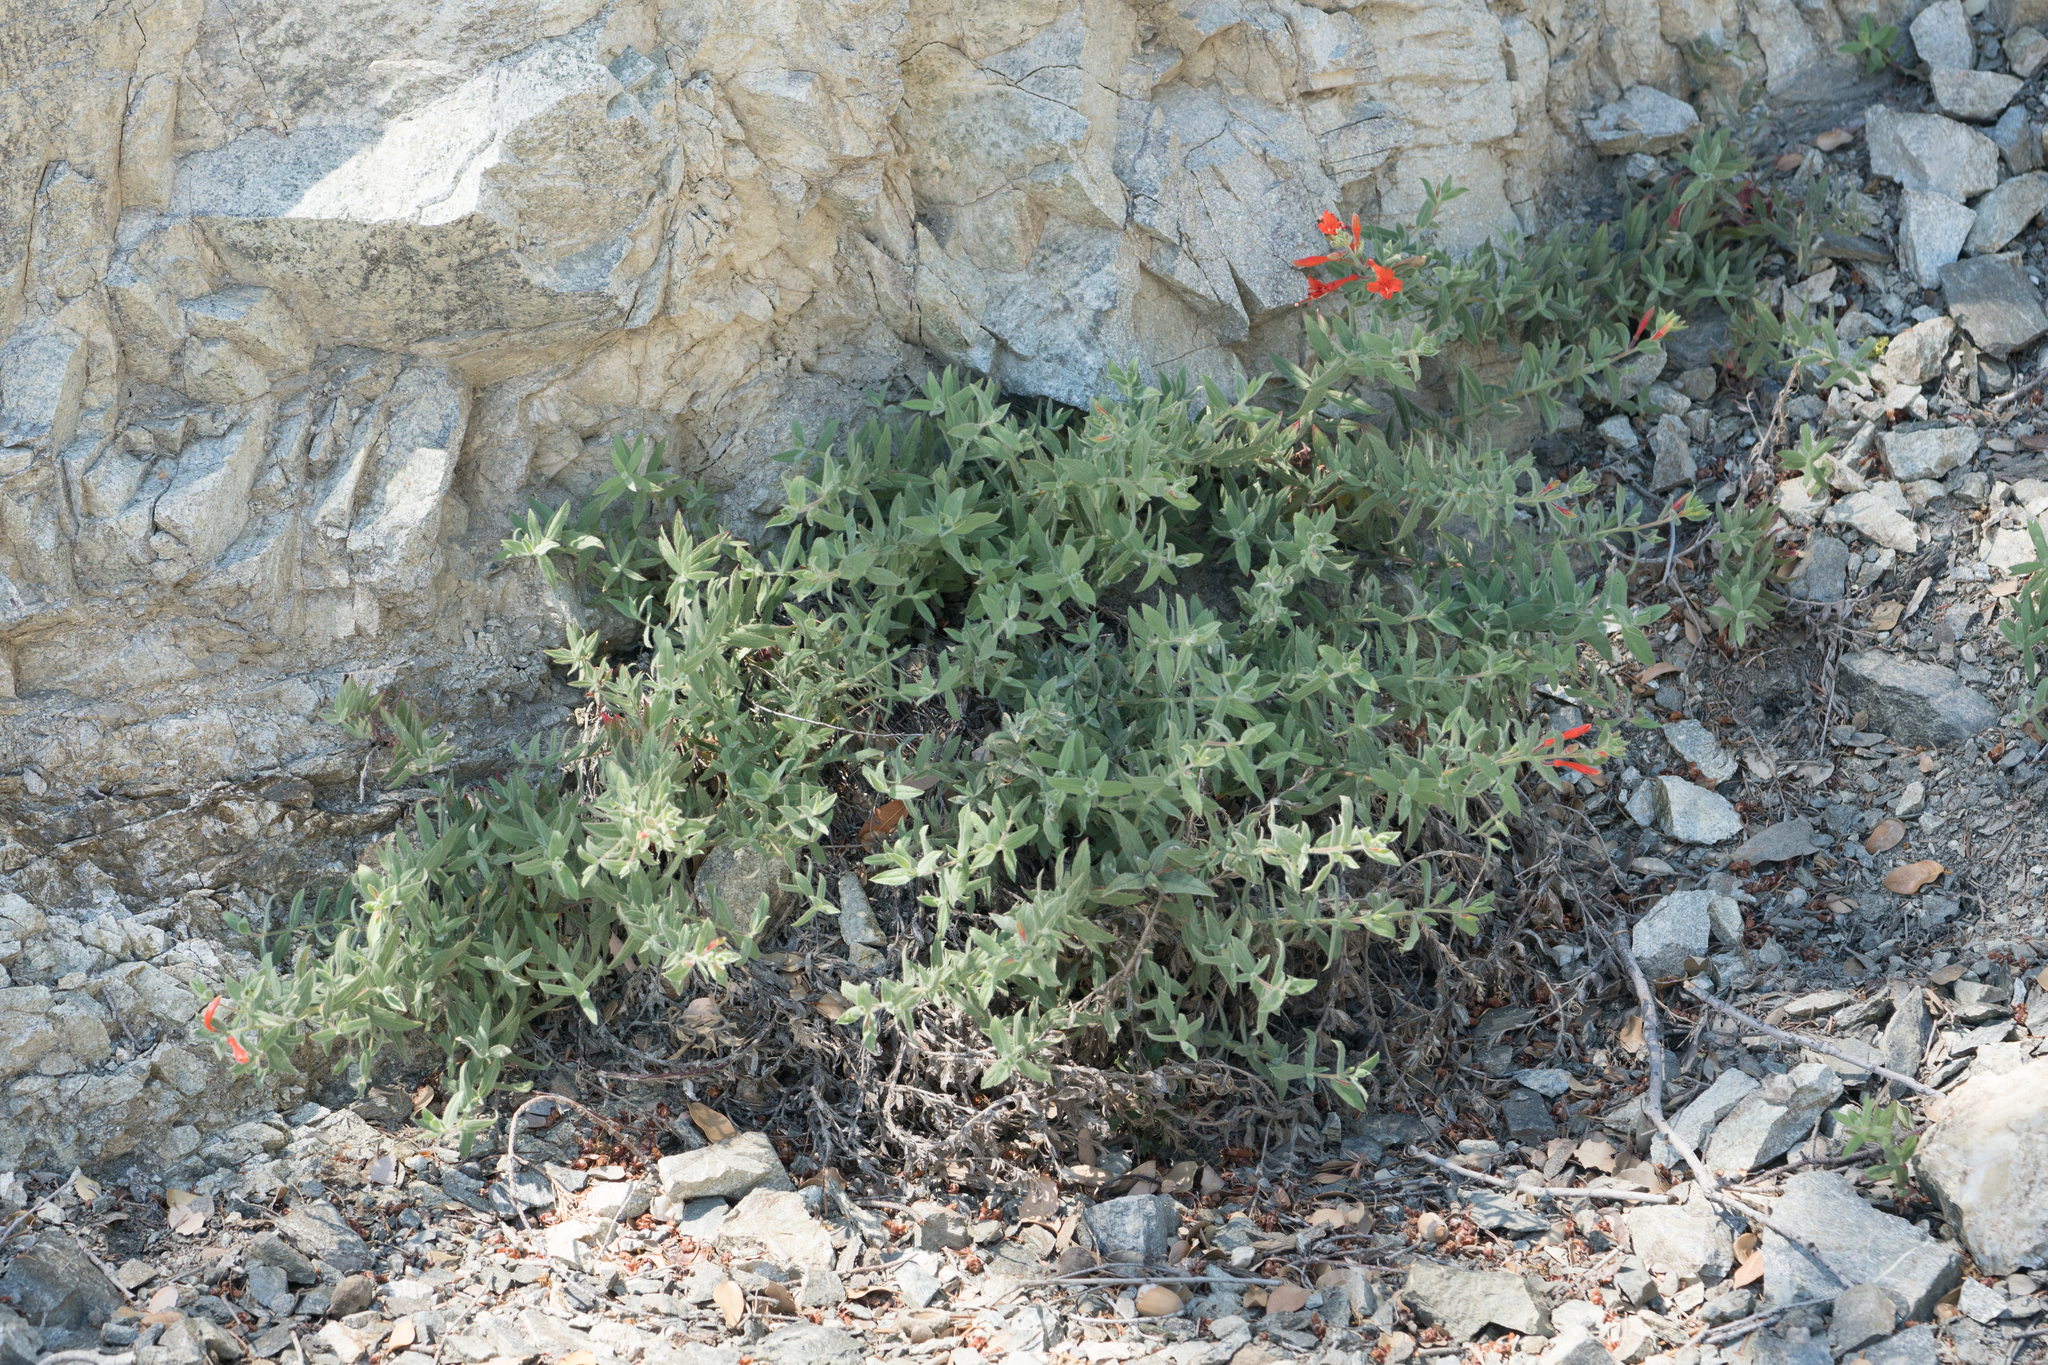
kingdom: Plantae
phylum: Tracheophyta
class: Magnoliopsida
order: Myrtales
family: Onagraceae
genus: Epilobium
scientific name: Epilobium canum
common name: California-fuchsia
